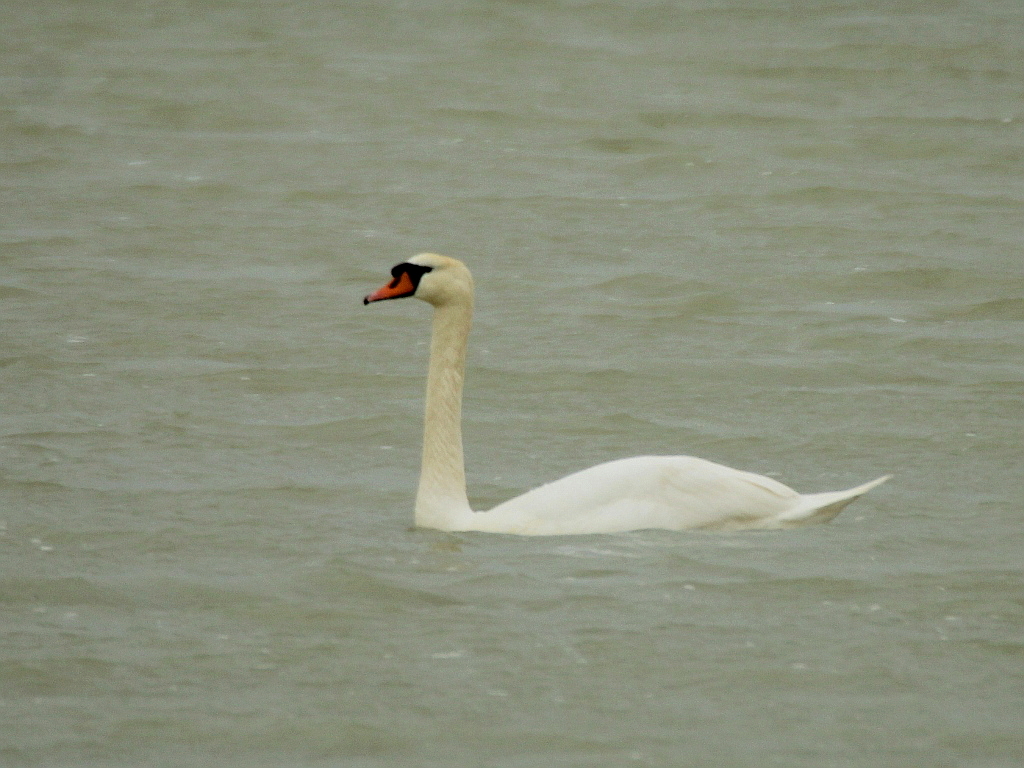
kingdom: Animalia
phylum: Chordata
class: Aves
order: Anseriformes
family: Anatidae
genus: Cygnus
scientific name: Cygnus olor
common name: Mute swan
